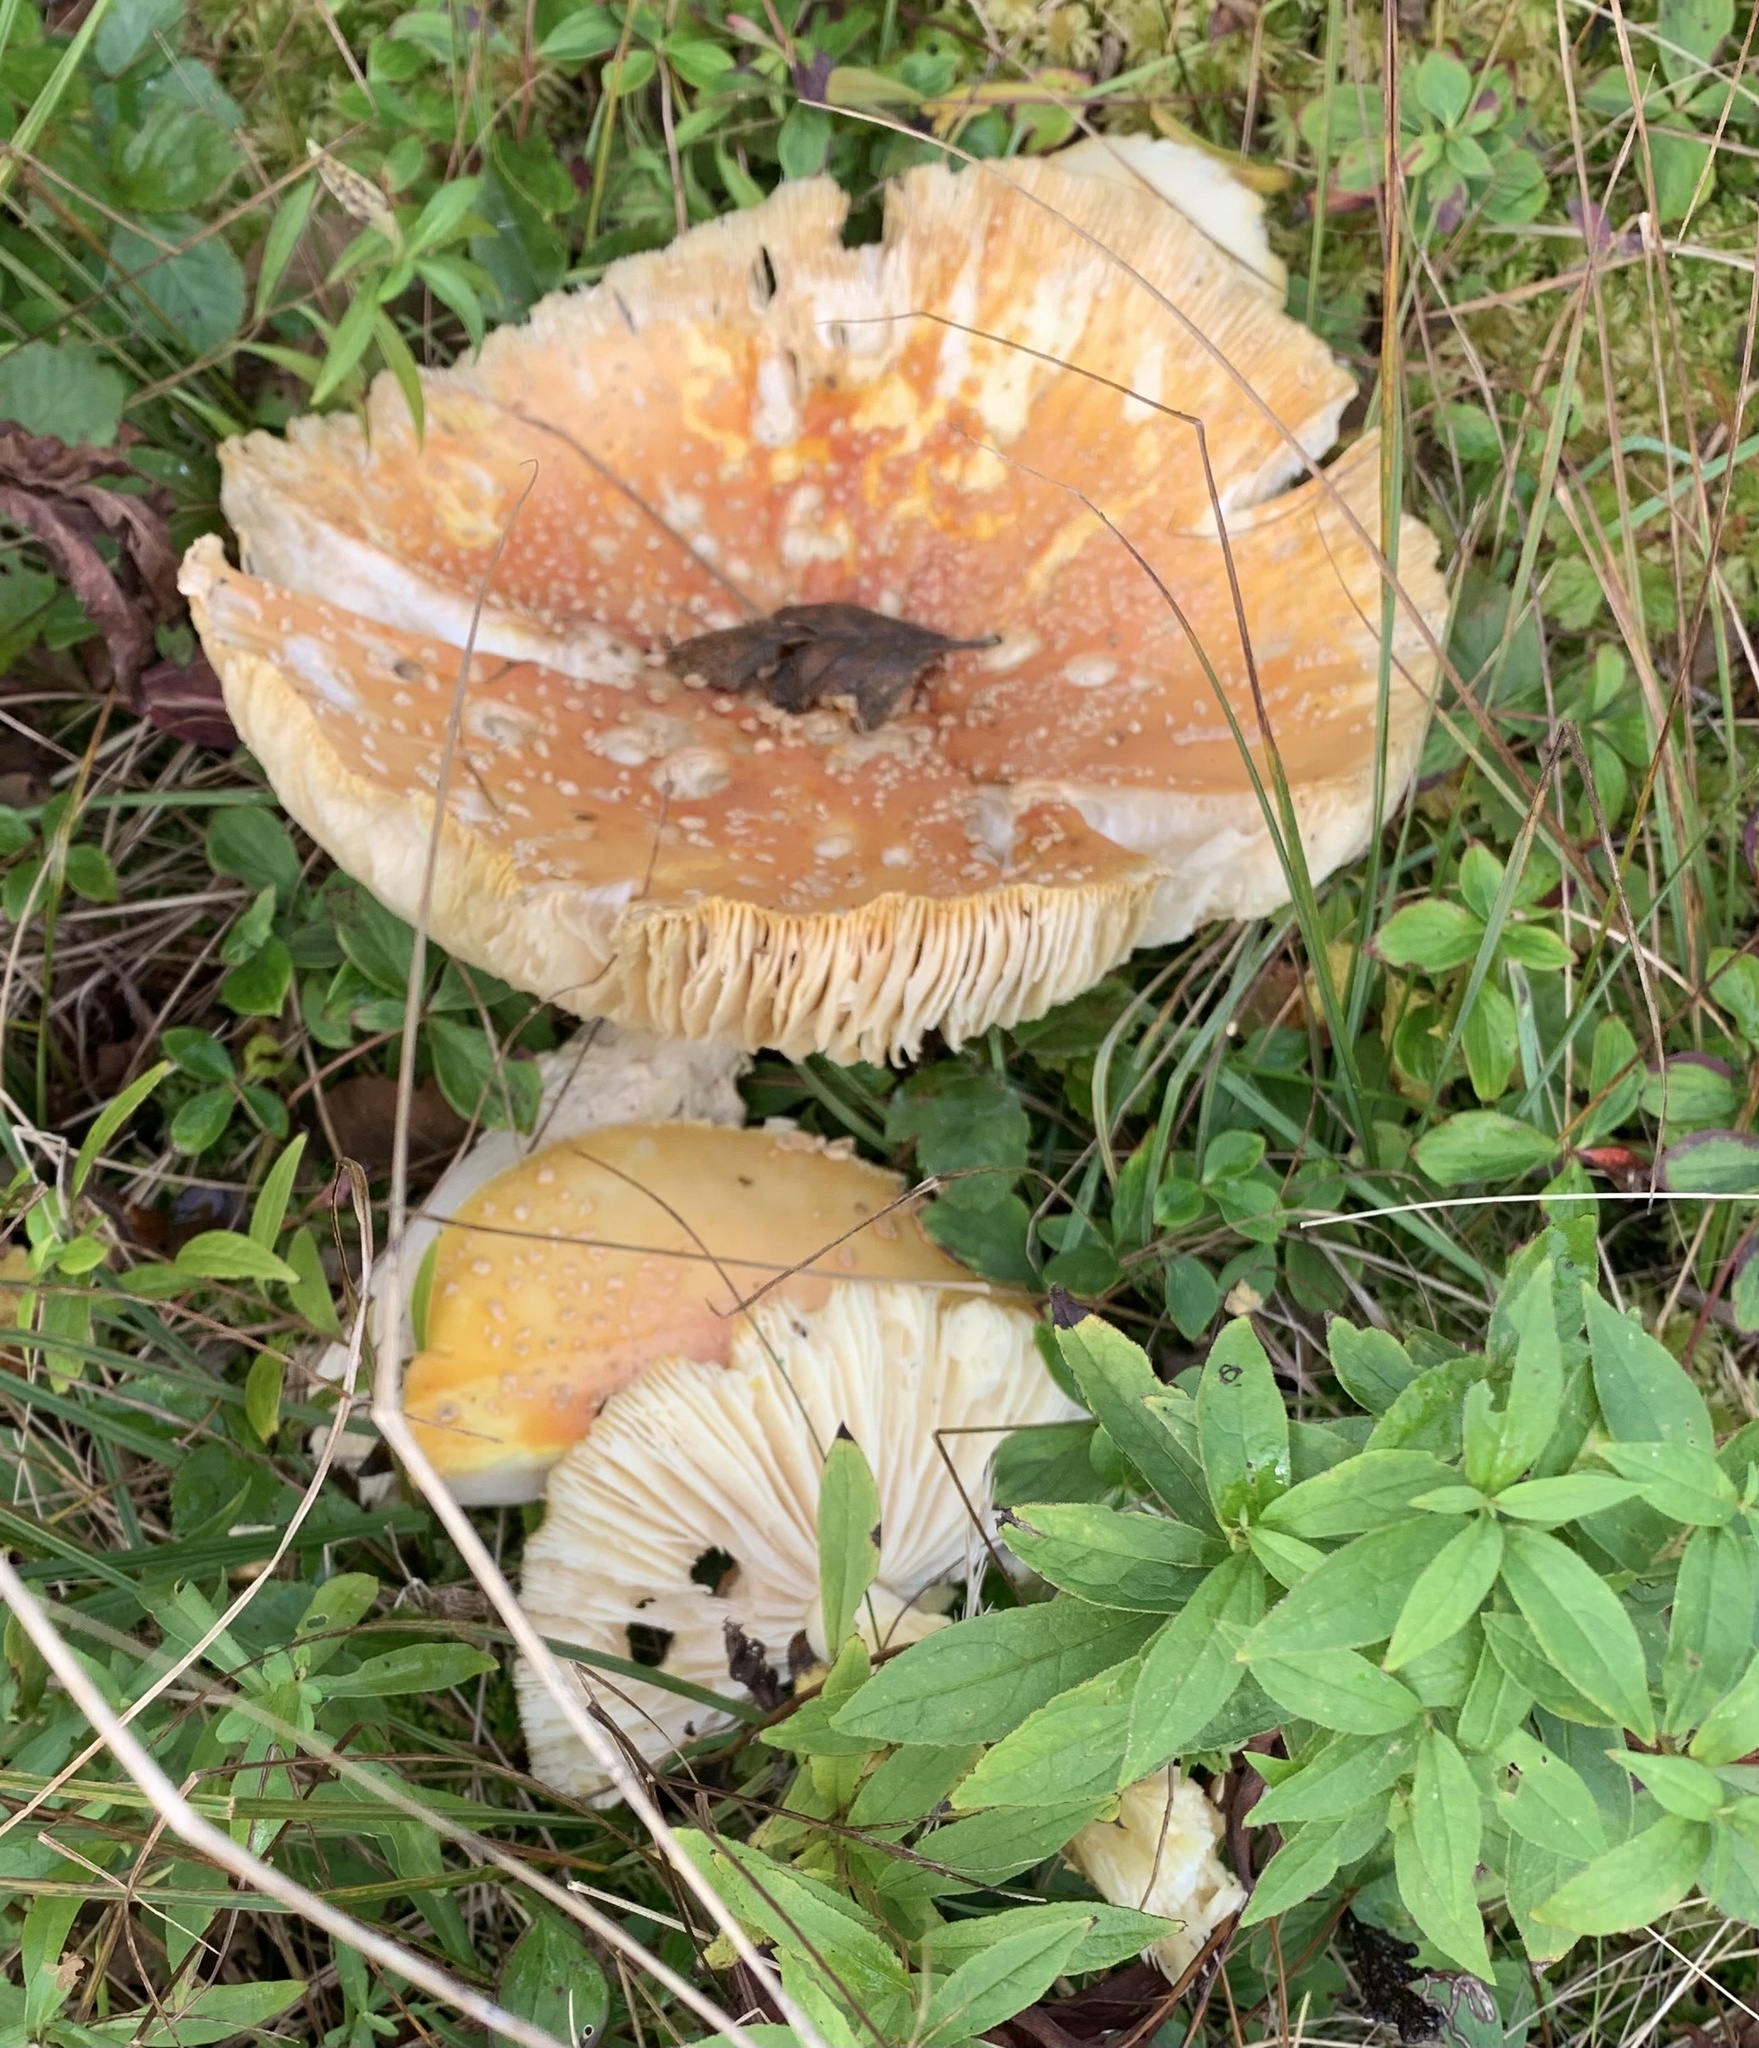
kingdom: Fungi
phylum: Basidiomycota
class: Agaricomycetes
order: Agaricales
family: Amanitaceae
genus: Amanita
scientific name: Amanita muscaria
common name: Fly agaric
